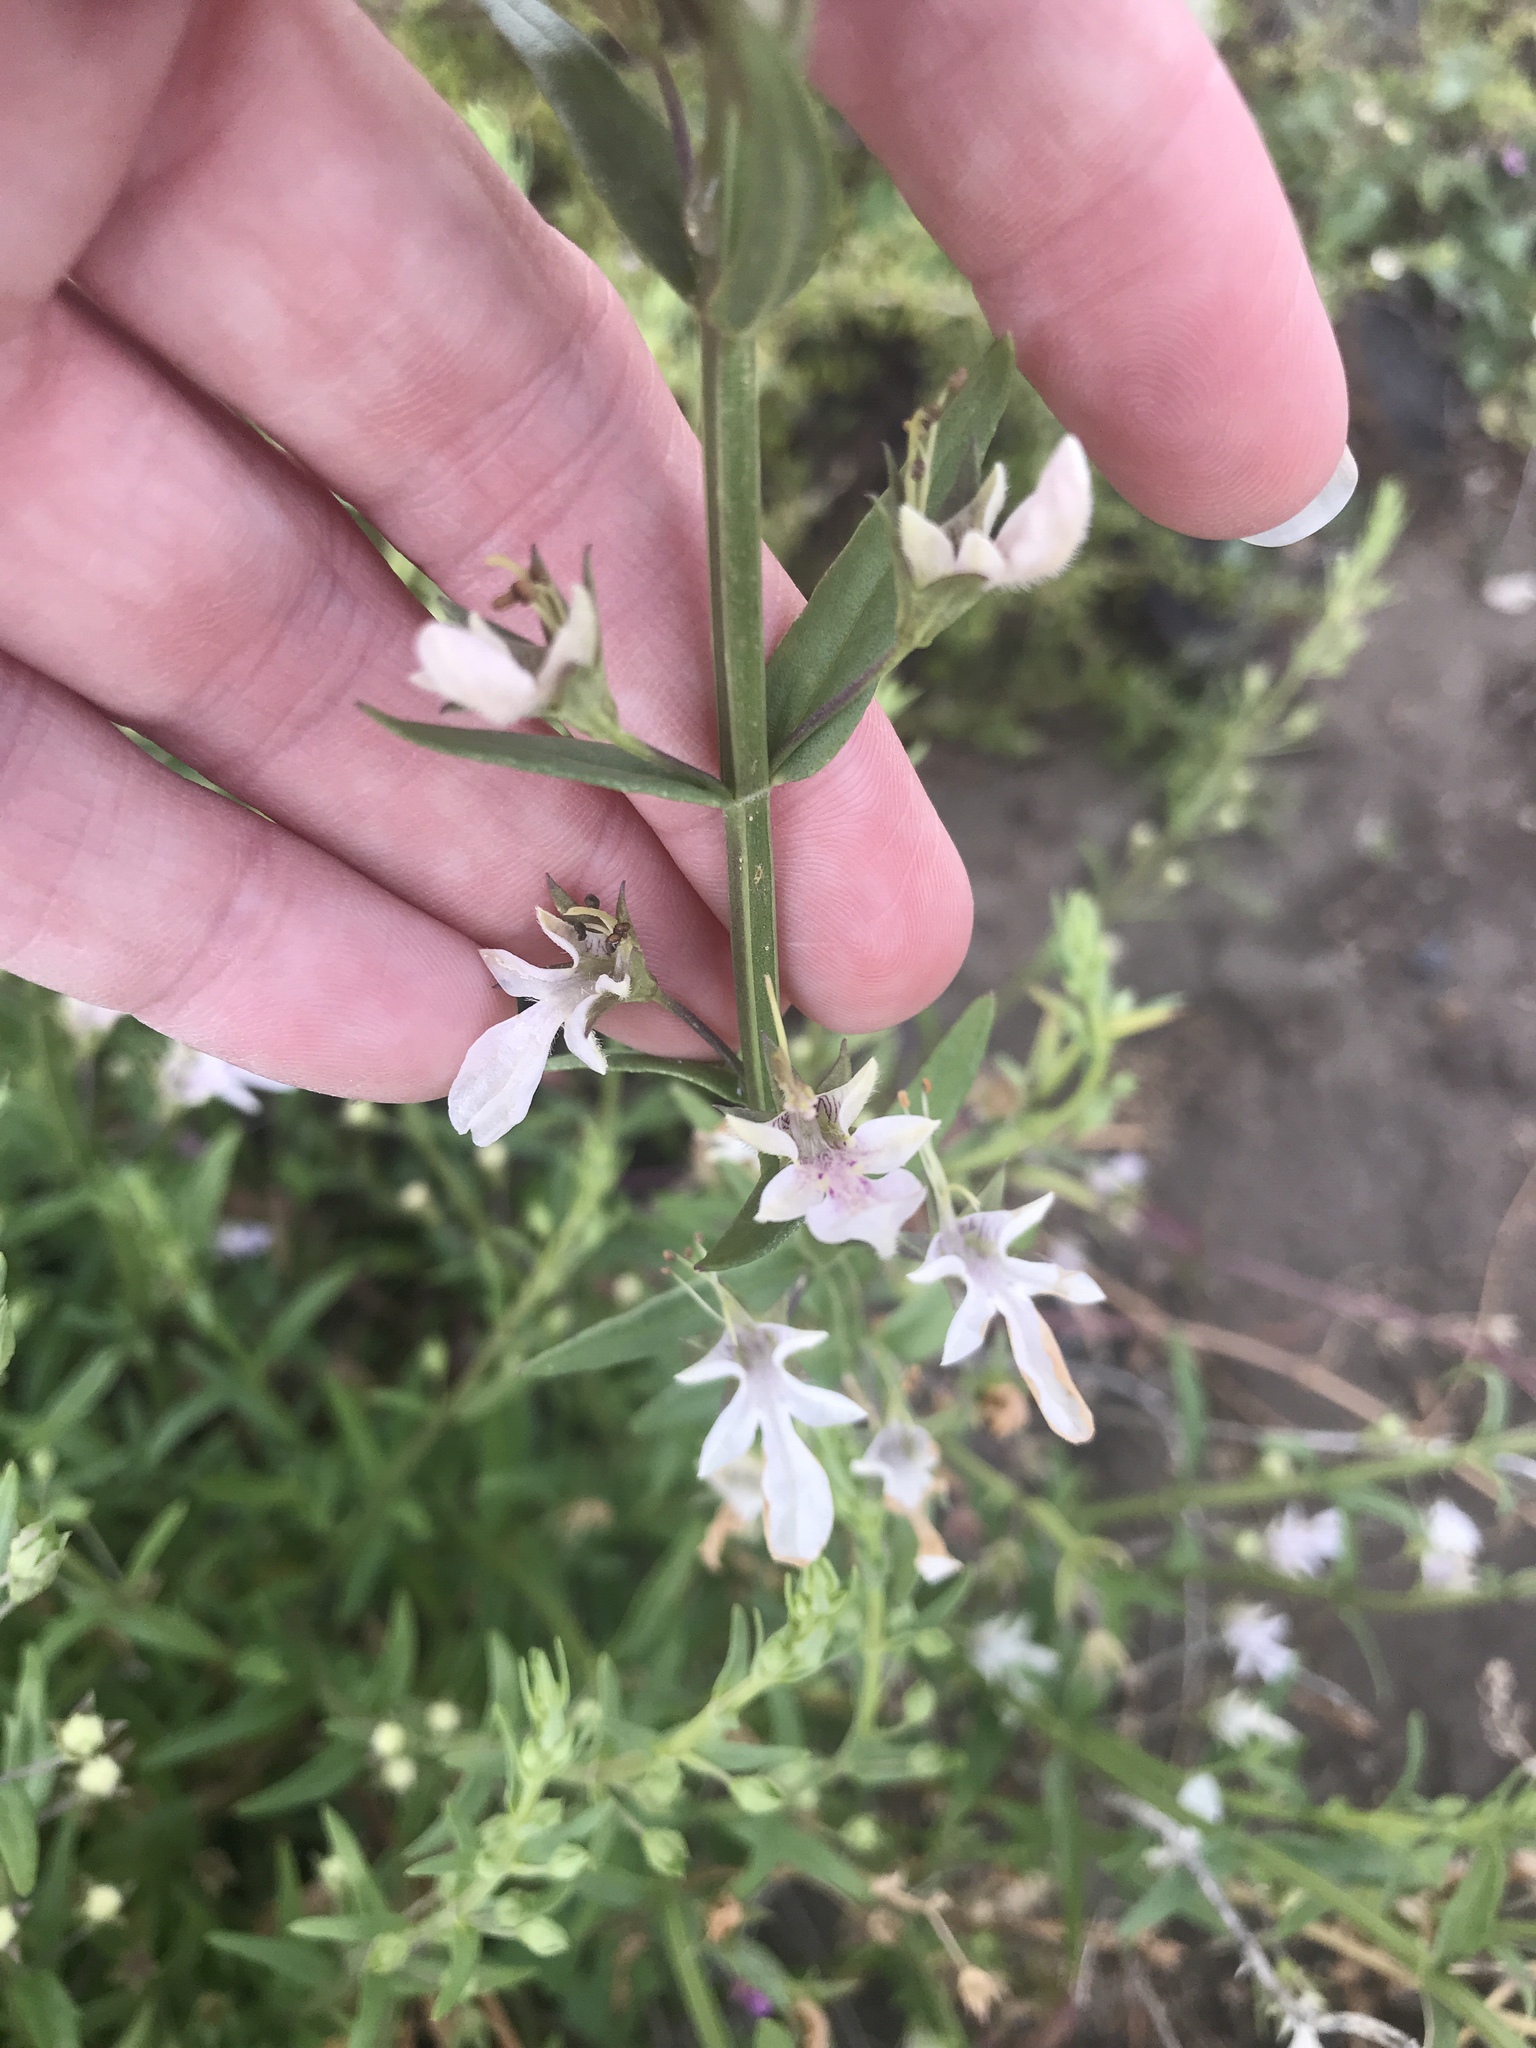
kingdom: Plantae
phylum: Tracheophyta
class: Magnoliopsida
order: Lamiales
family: Lamiaceae
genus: Teucrium
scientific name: Teucrium glandulosum
